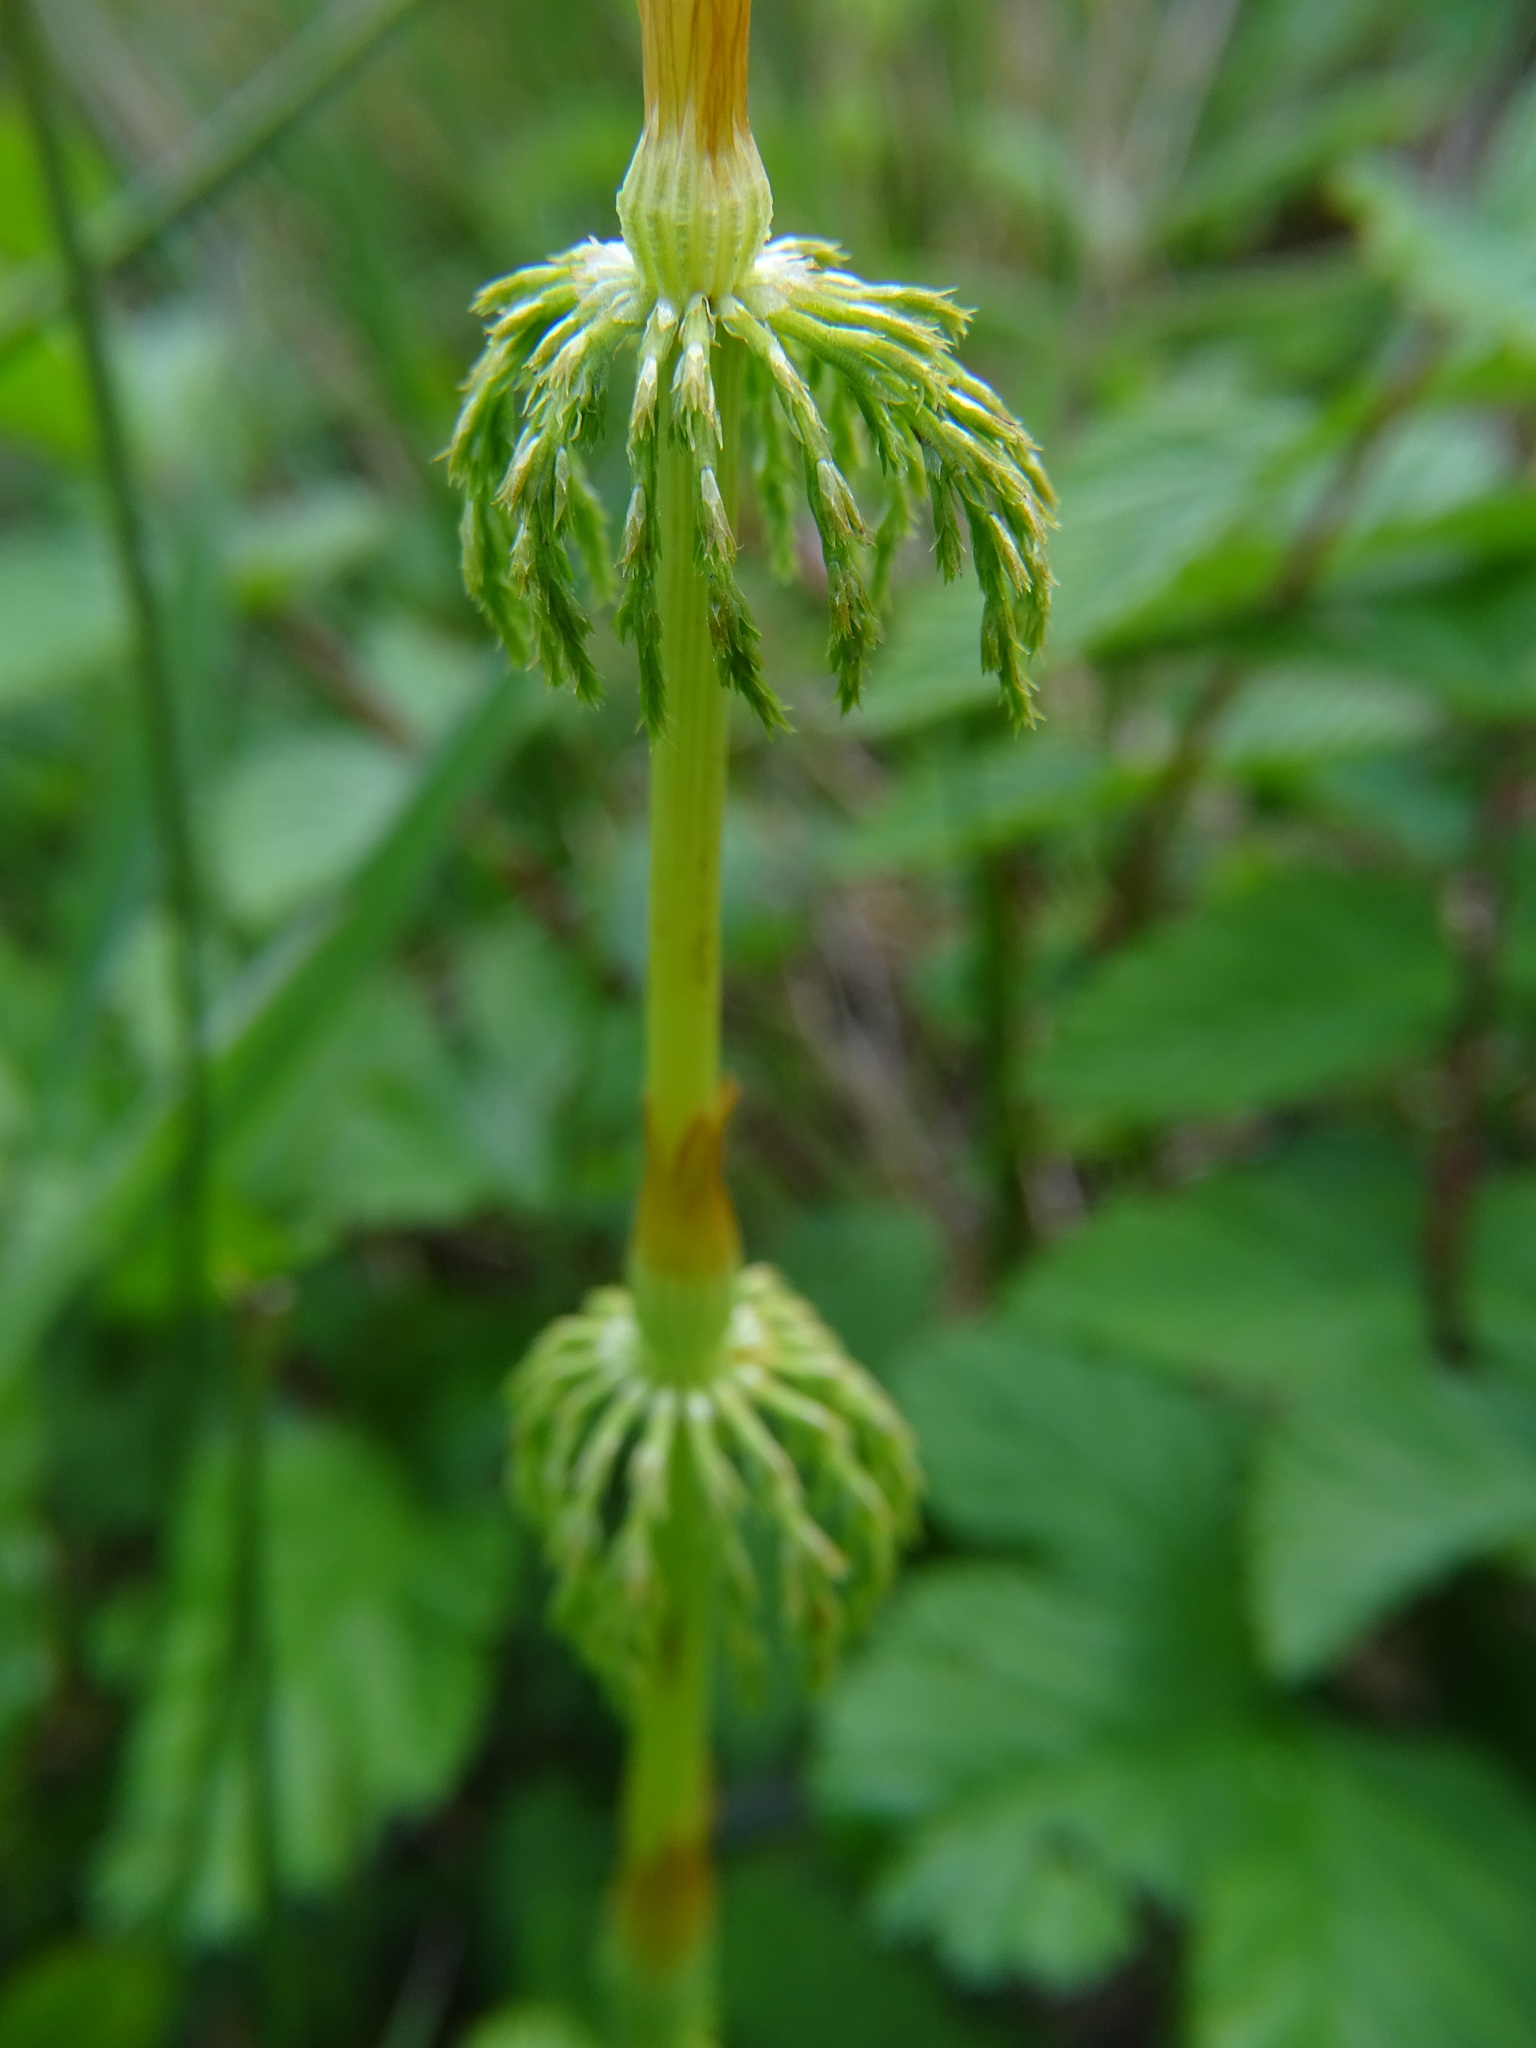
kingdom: Plantae
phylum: Tracheophyta
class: Polypodiopsida
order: Equisetales
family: Equisetaceae
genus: Equisetum
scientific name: Equisetum sylvaticum
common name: Wood horsetail
